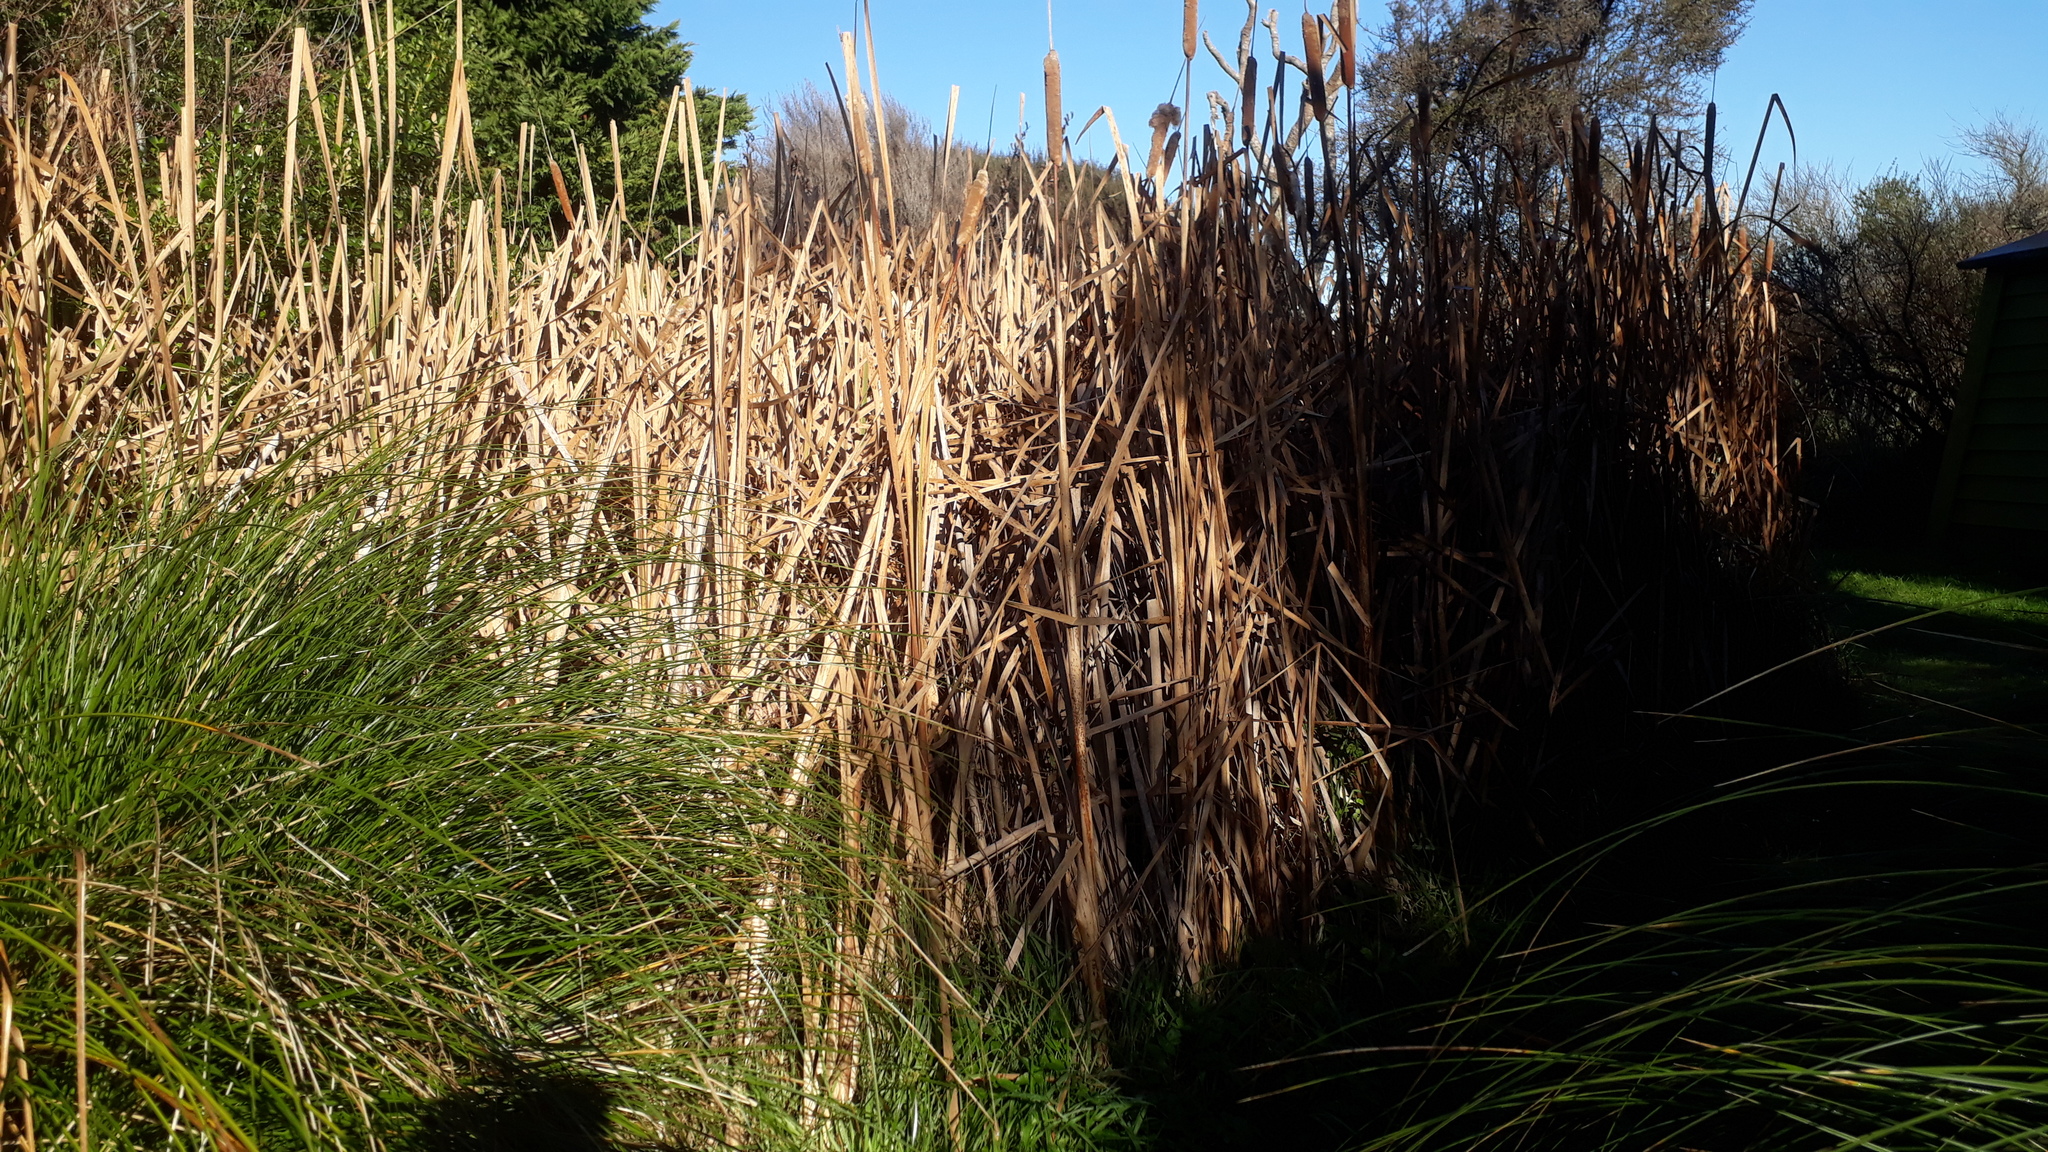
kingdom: Plantae
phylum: Tracheophyta
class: Liliopsida
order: Poales
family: Typhaceae
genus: Typha
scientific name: Typha orientalis
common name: Bullrush
